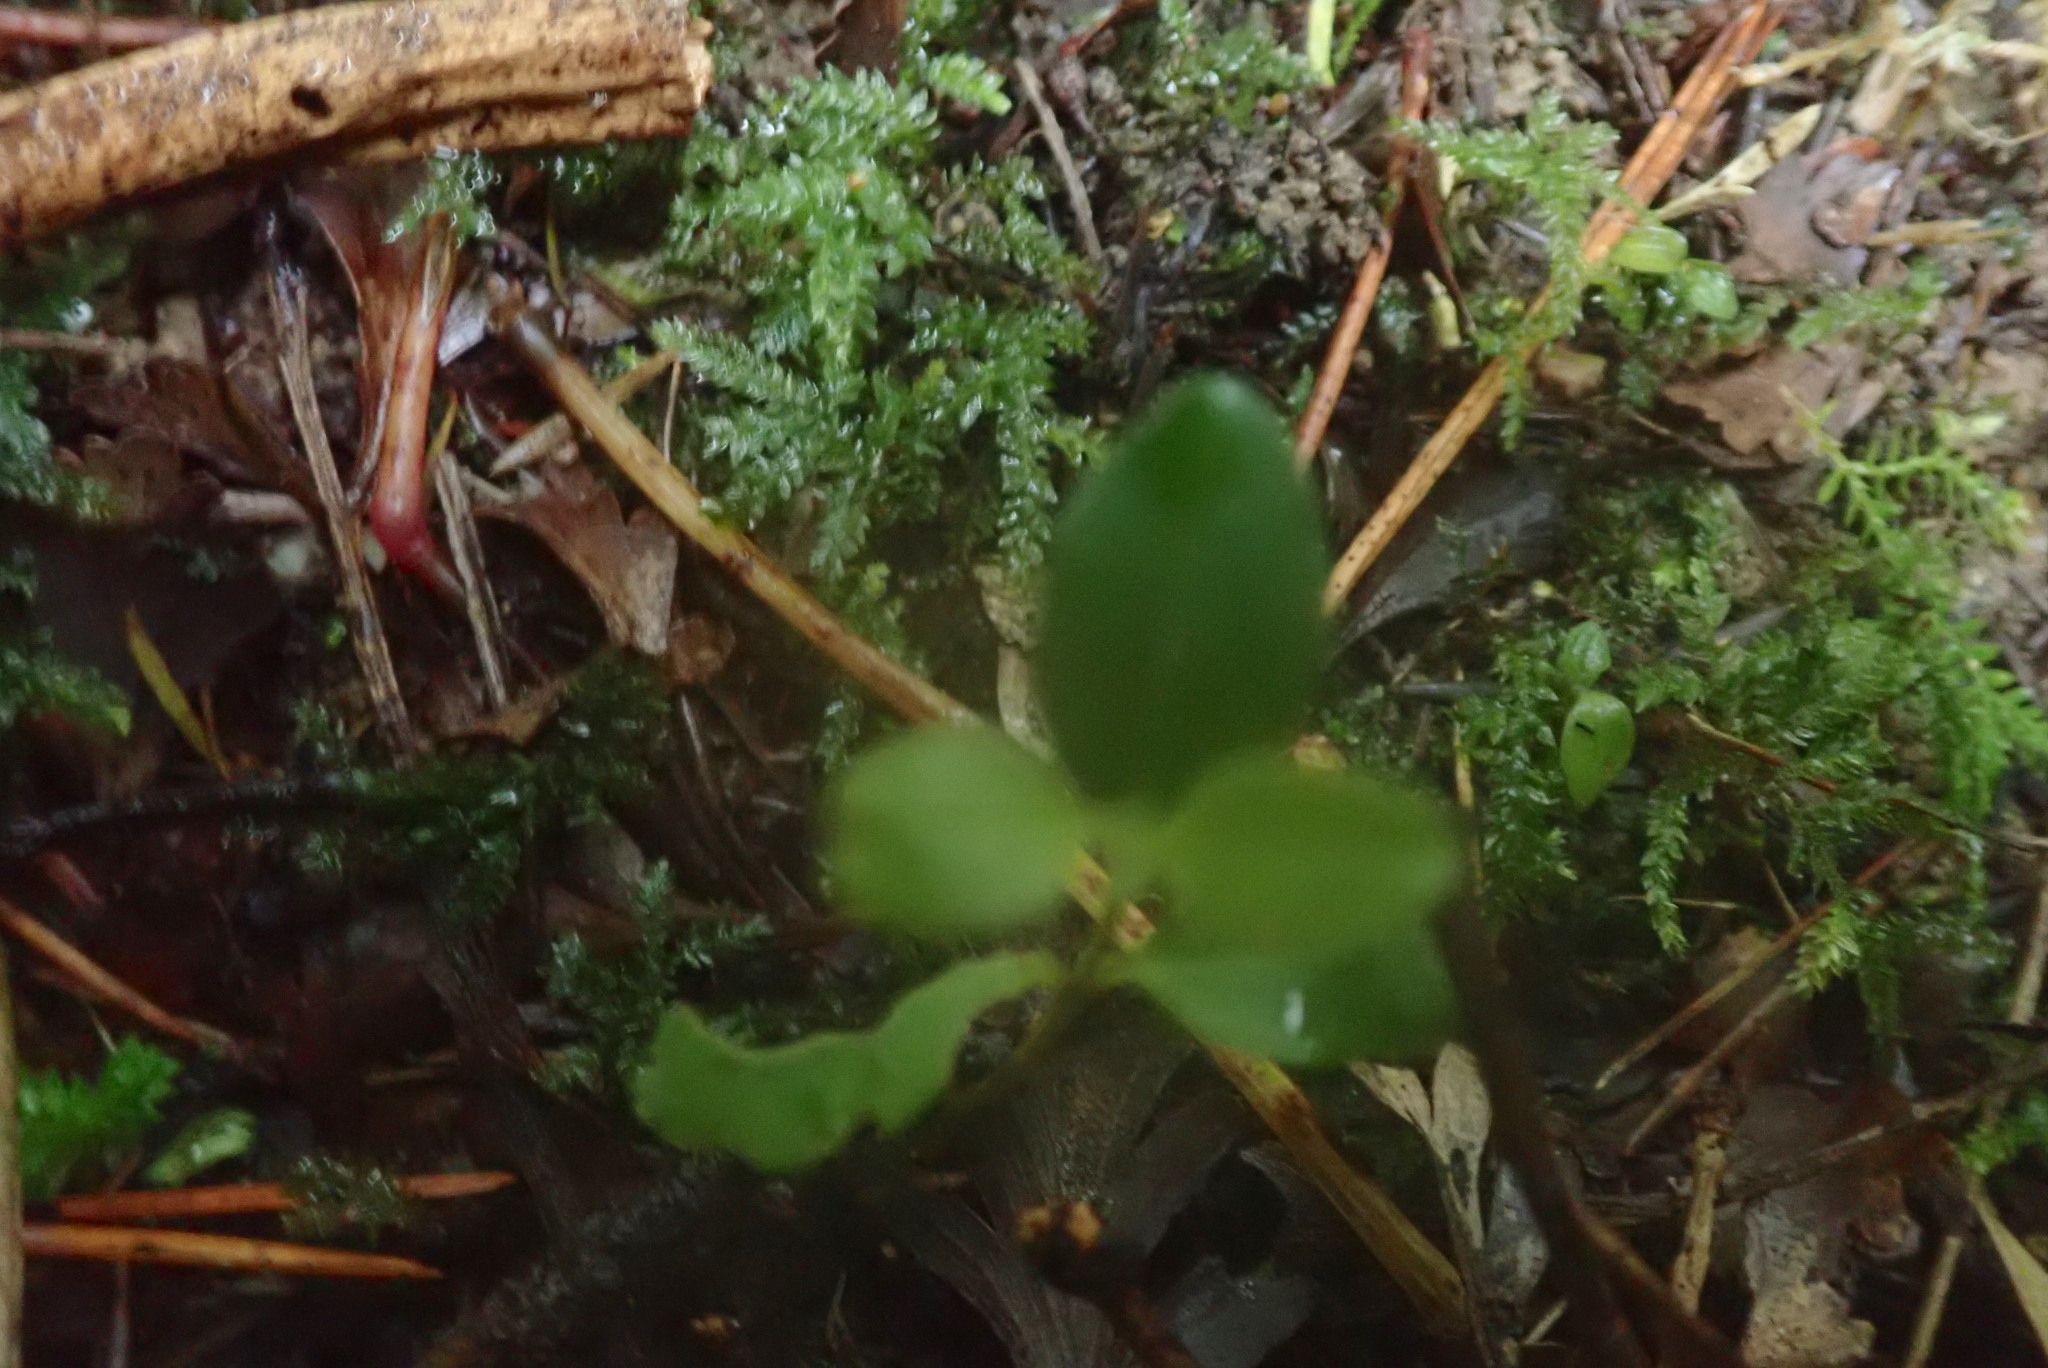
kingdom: Plantae
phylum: Tracheophyta
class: Magnoliopsida
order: Lamiales
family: Oleaceae
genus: Ligustrum
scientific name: Ligustrum lucidum
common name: Glossy privet
